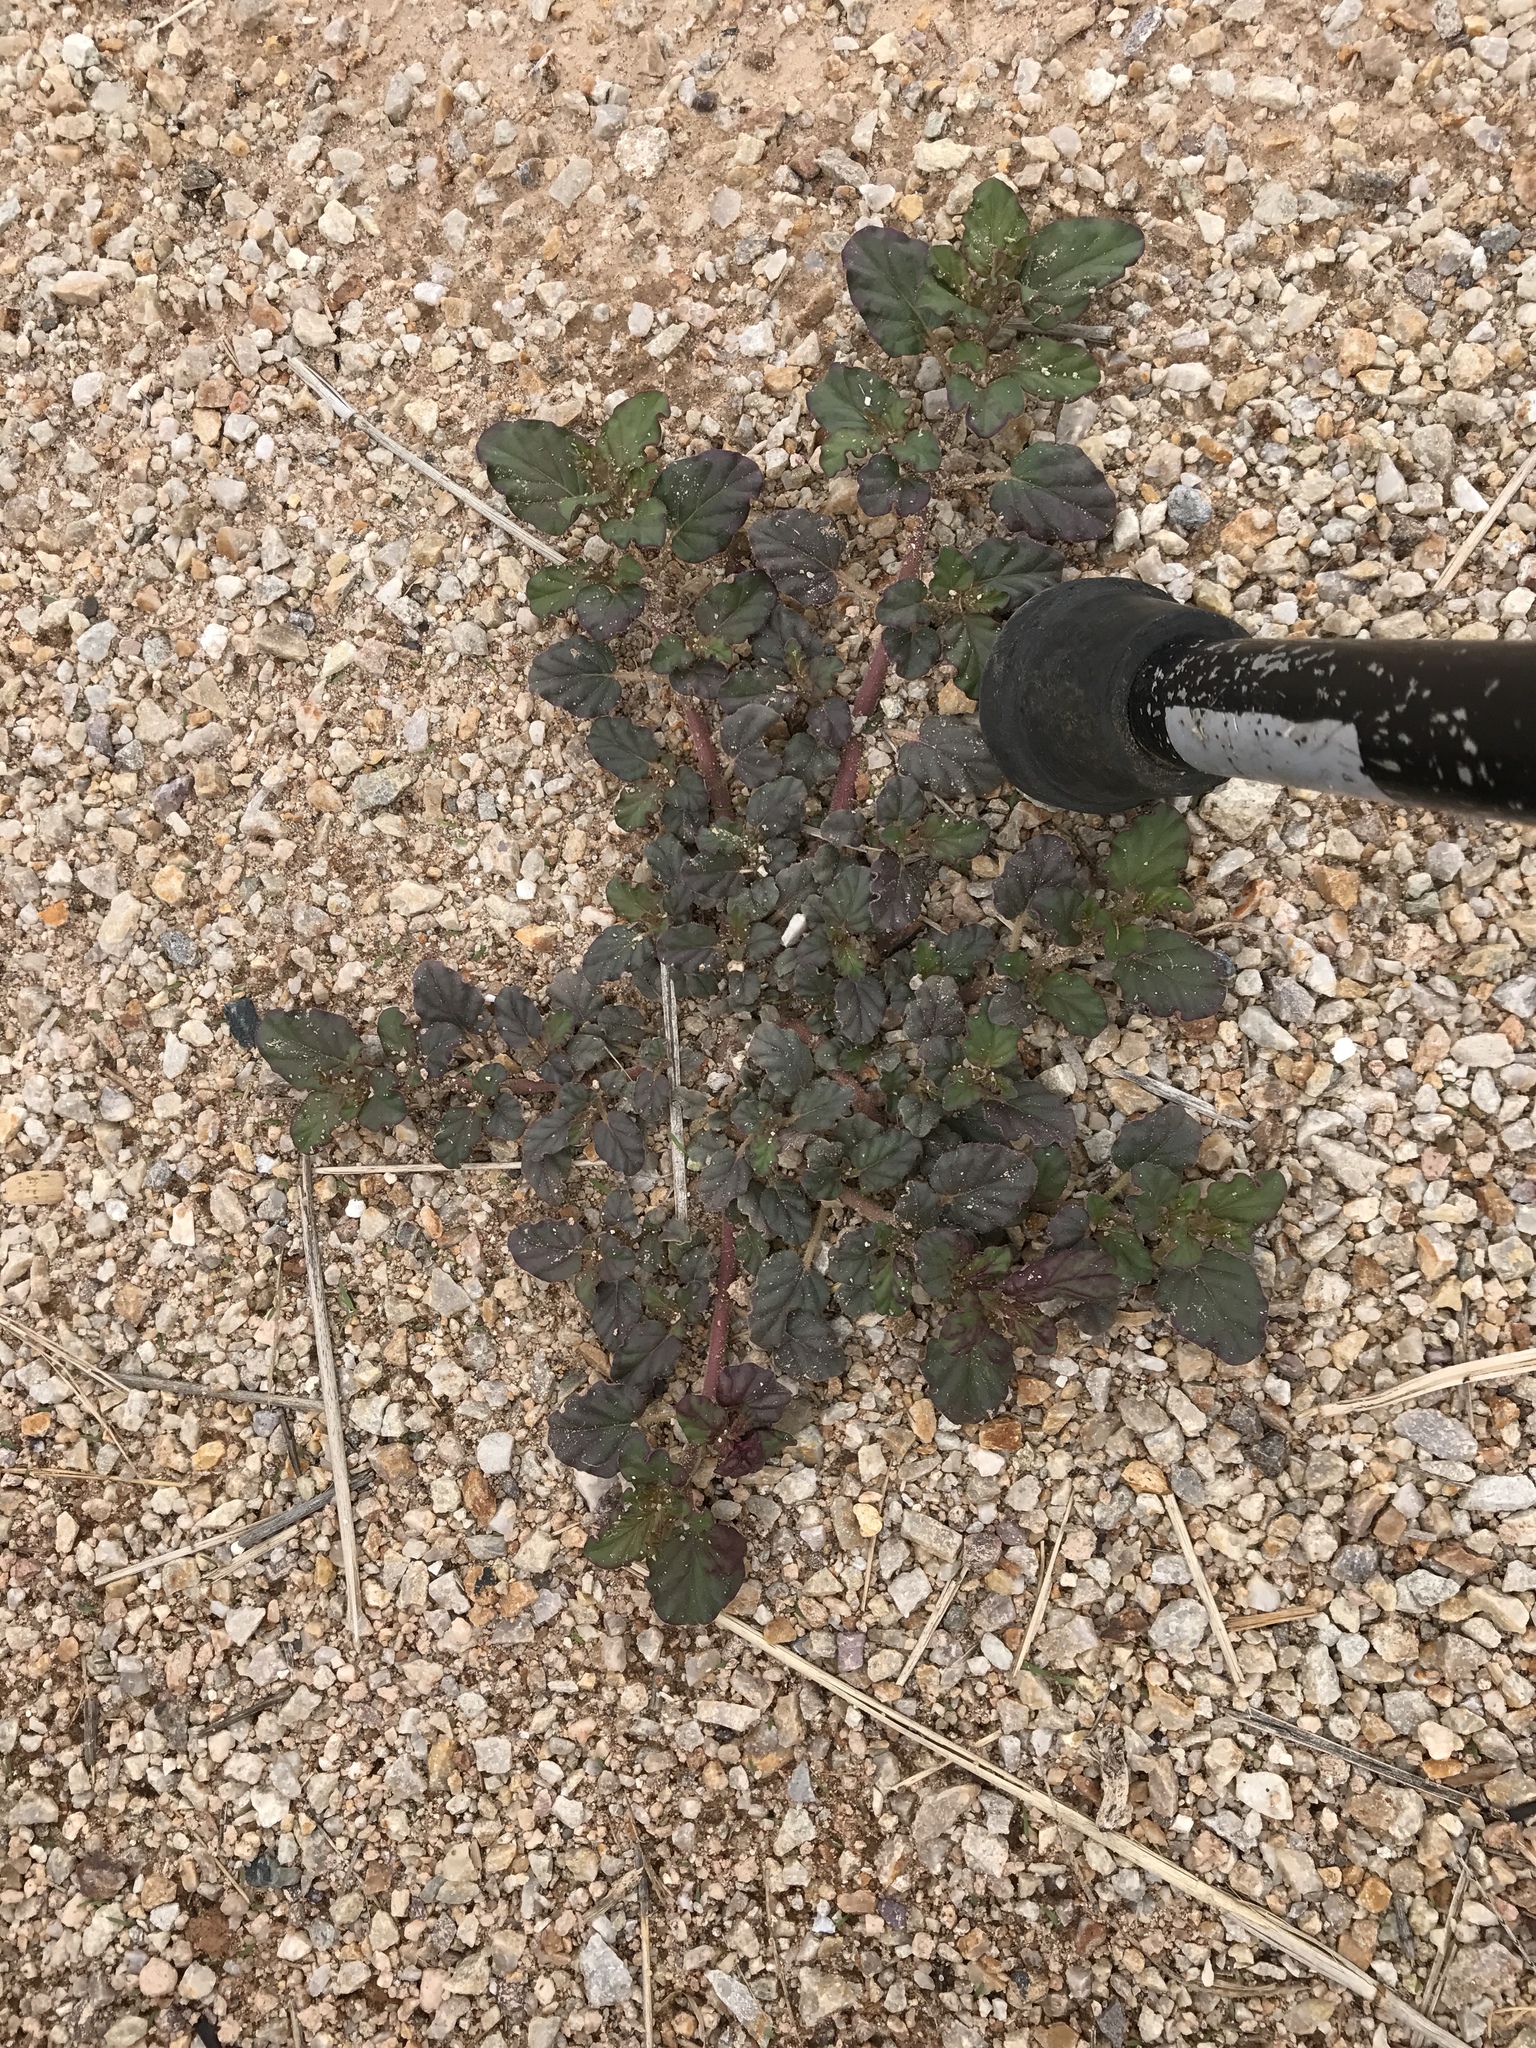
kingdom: Plantae
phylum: Tracheophyta
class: Magnoliopsida
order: Caryophyllales
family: Nyctaginaceae
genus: Boerhavia
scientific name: Boerhavia coccinea
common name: Scarlet spiderling
